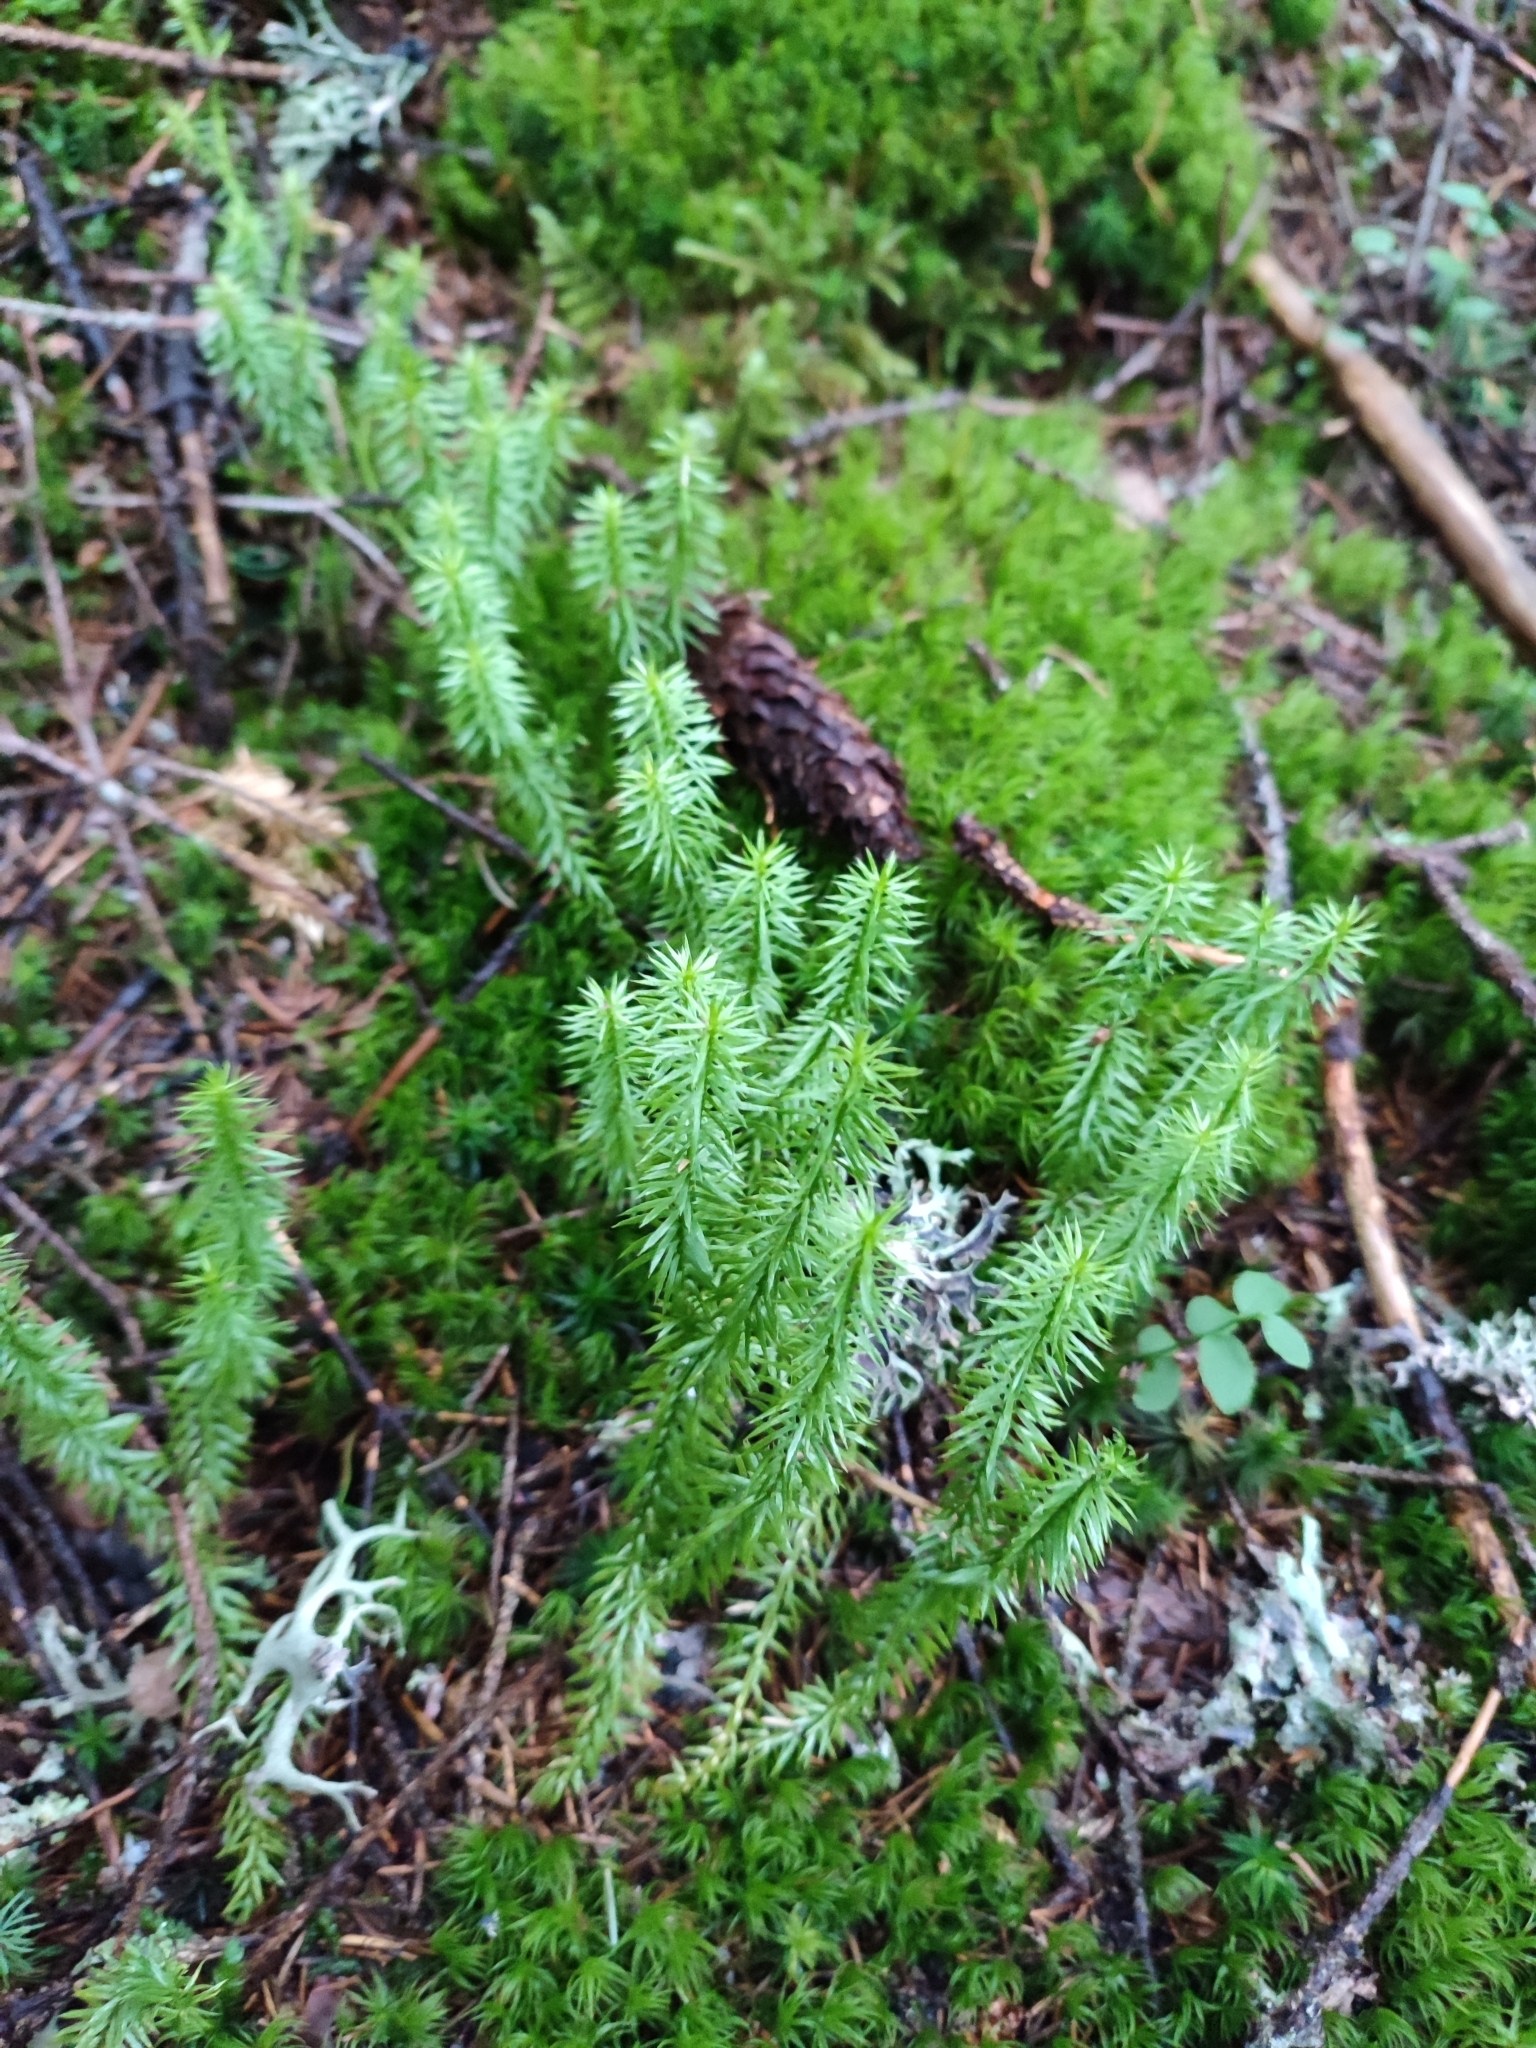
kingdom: Plantae
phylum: Tracheophyta
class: Lycopodiopsida
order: Lycopodiales
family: Lycopodiaceae
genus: Spinulum
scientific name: Spinulum annotinum
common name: Interrupted club-moss
